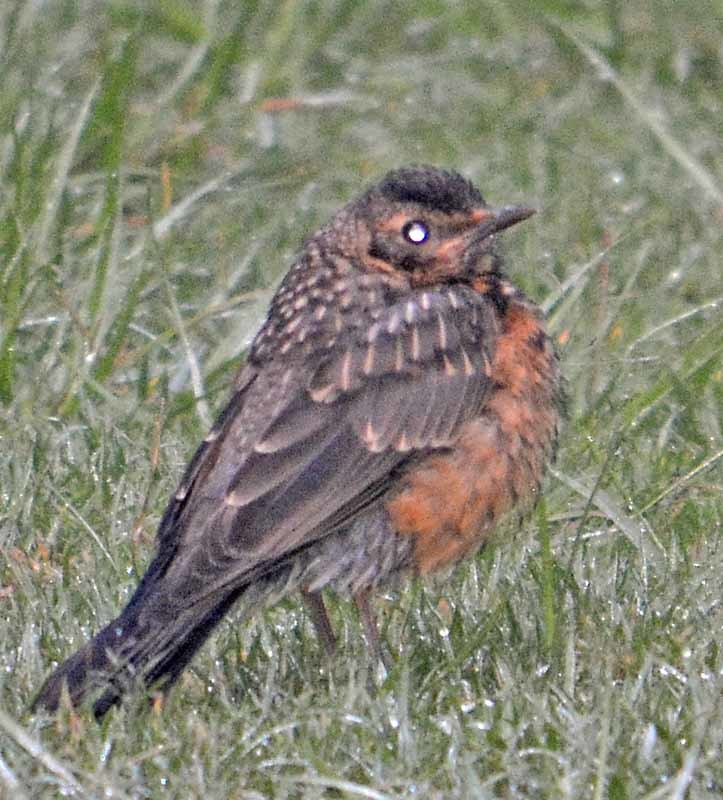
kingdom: Animalia
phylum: Chordata
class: Aves
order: Passeriformes
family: Turdidae
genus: Turdus
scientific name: Turdus migratorius
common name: American robin
